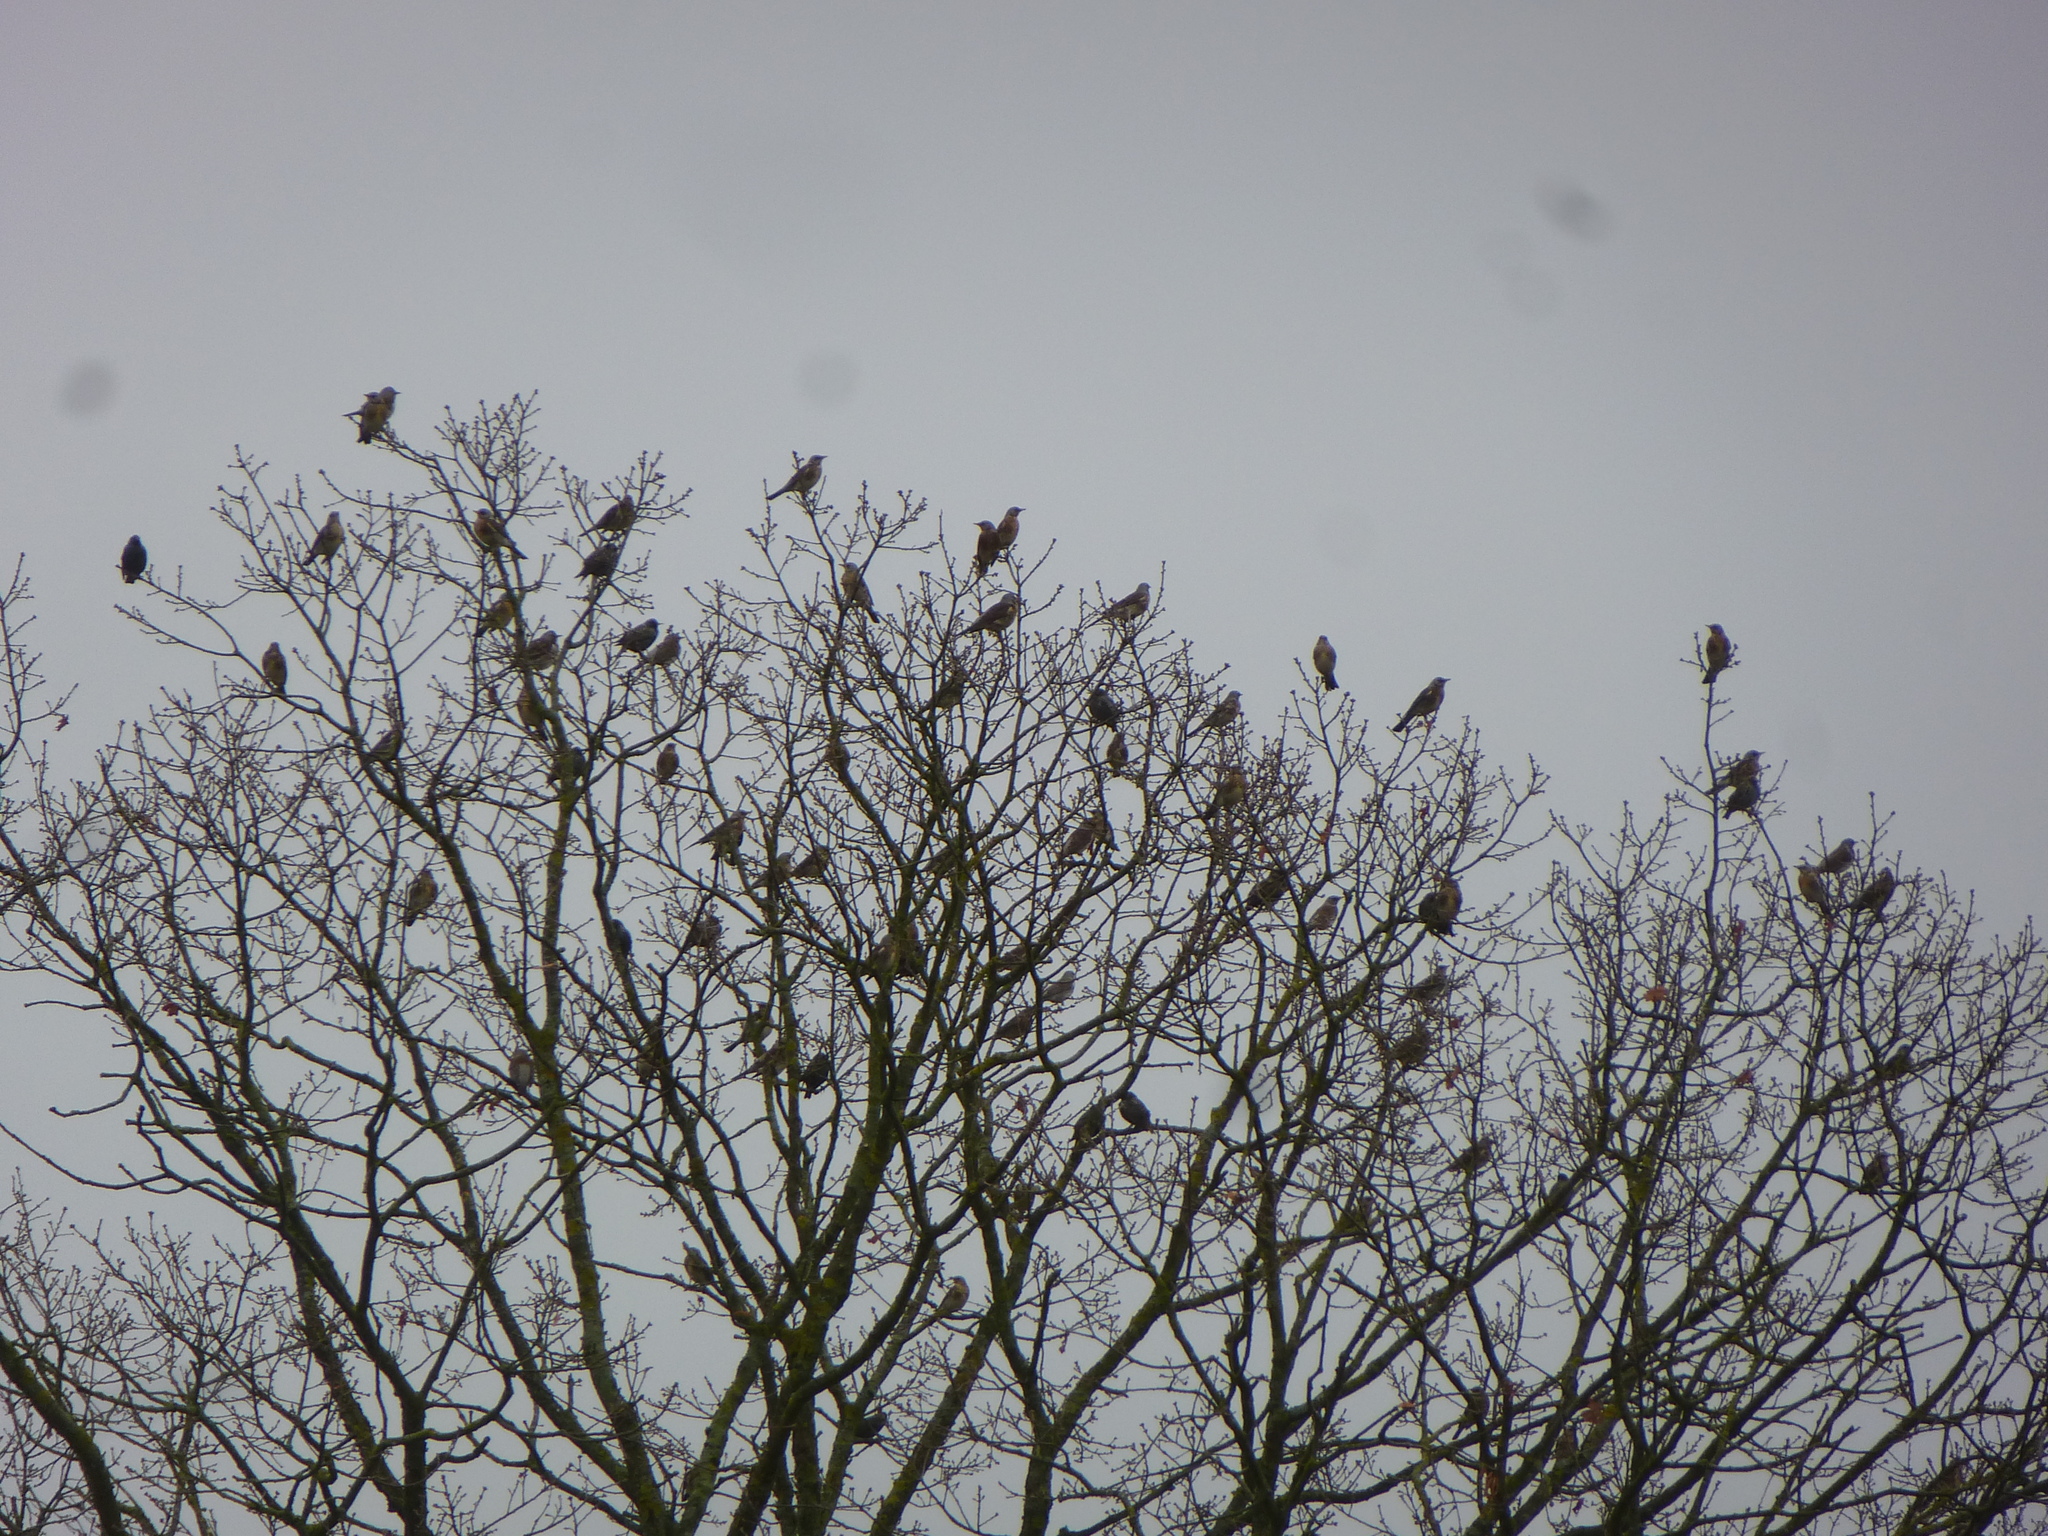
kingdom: Animalia
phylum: Chordata
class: Aves
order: Passeriformes
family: Turdidae
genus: Turdus
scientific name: Turdus pilaris
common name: Fieldfare
